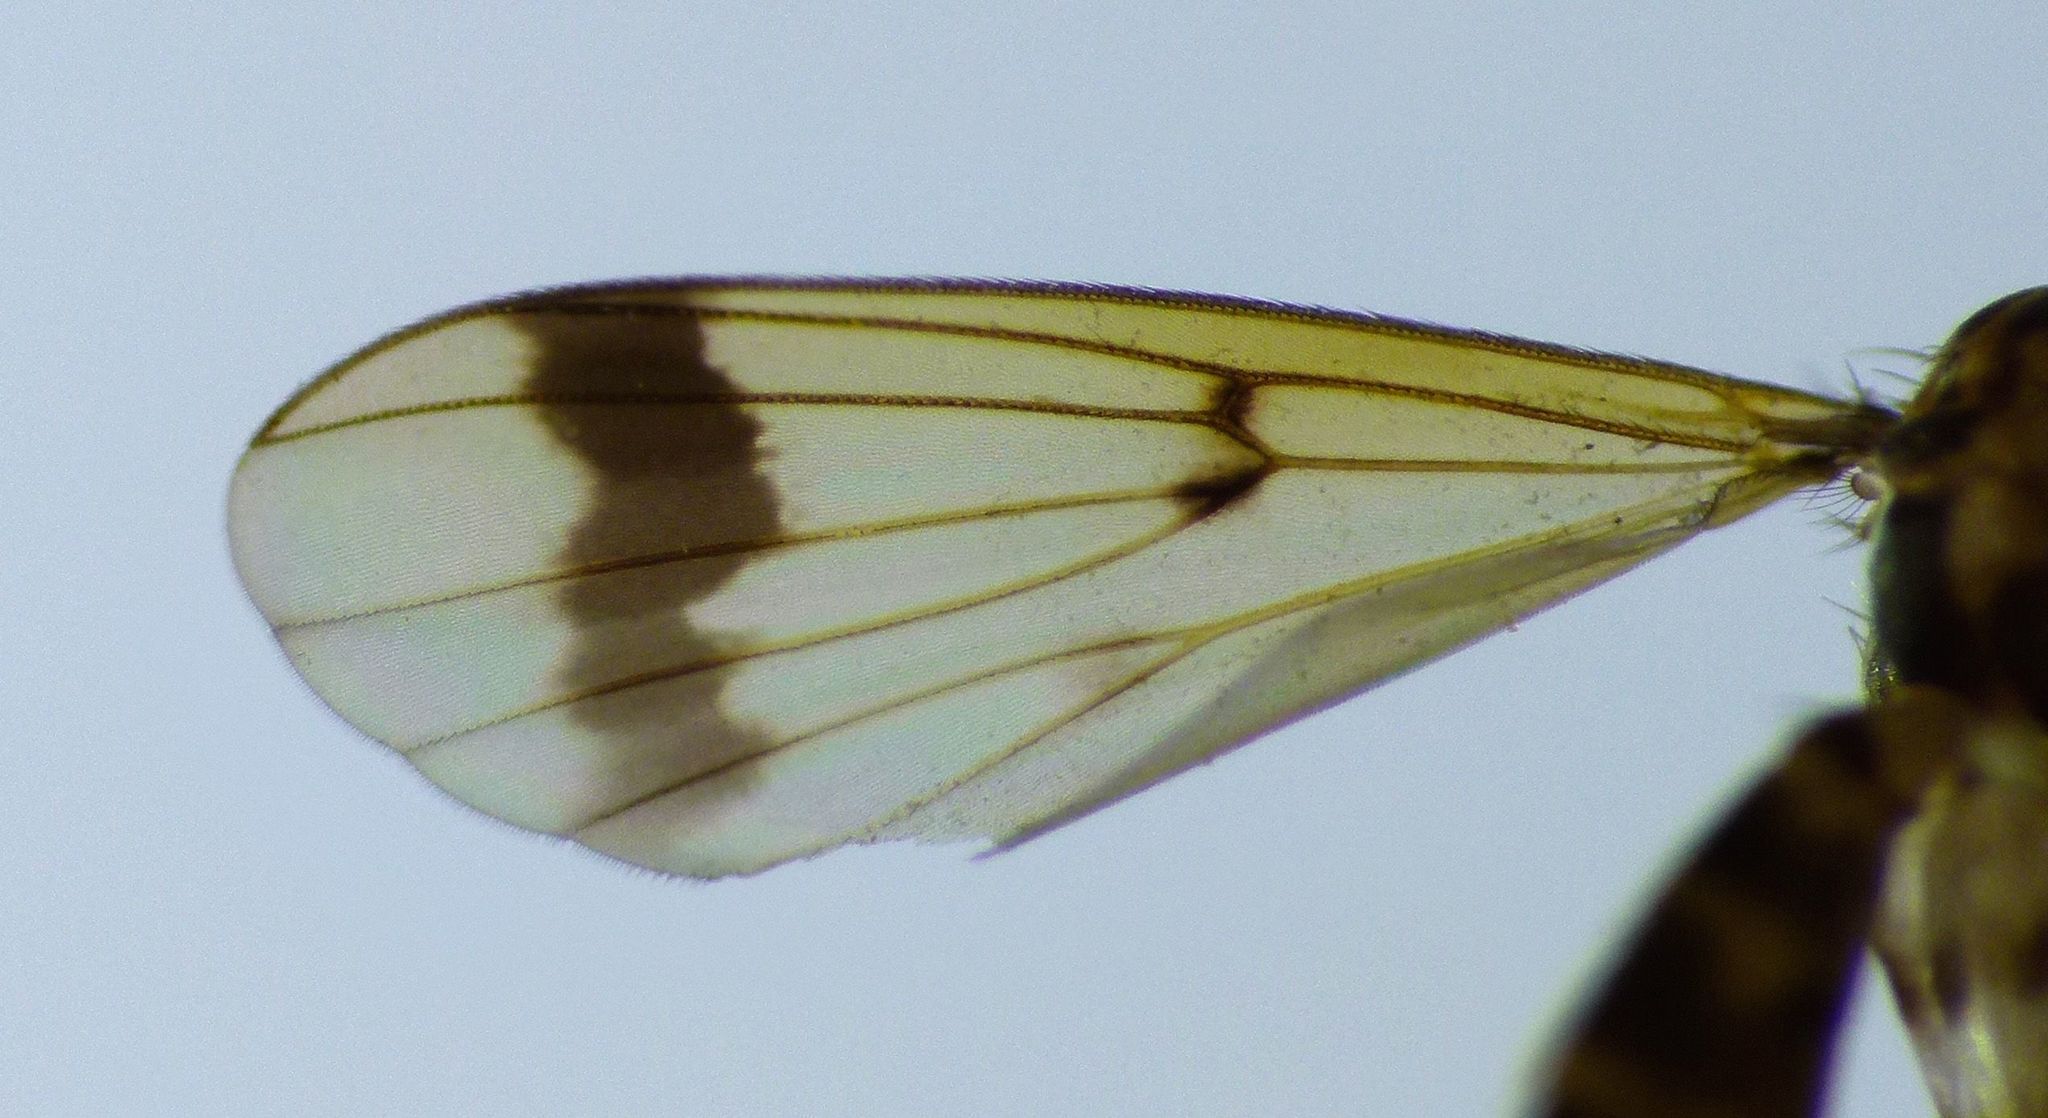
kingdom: Animalia
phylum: Arthropoda
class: Insecta
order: Diptera
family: Mycetophilidae
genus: Mycetophila
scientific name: Mycetophila latifascia
